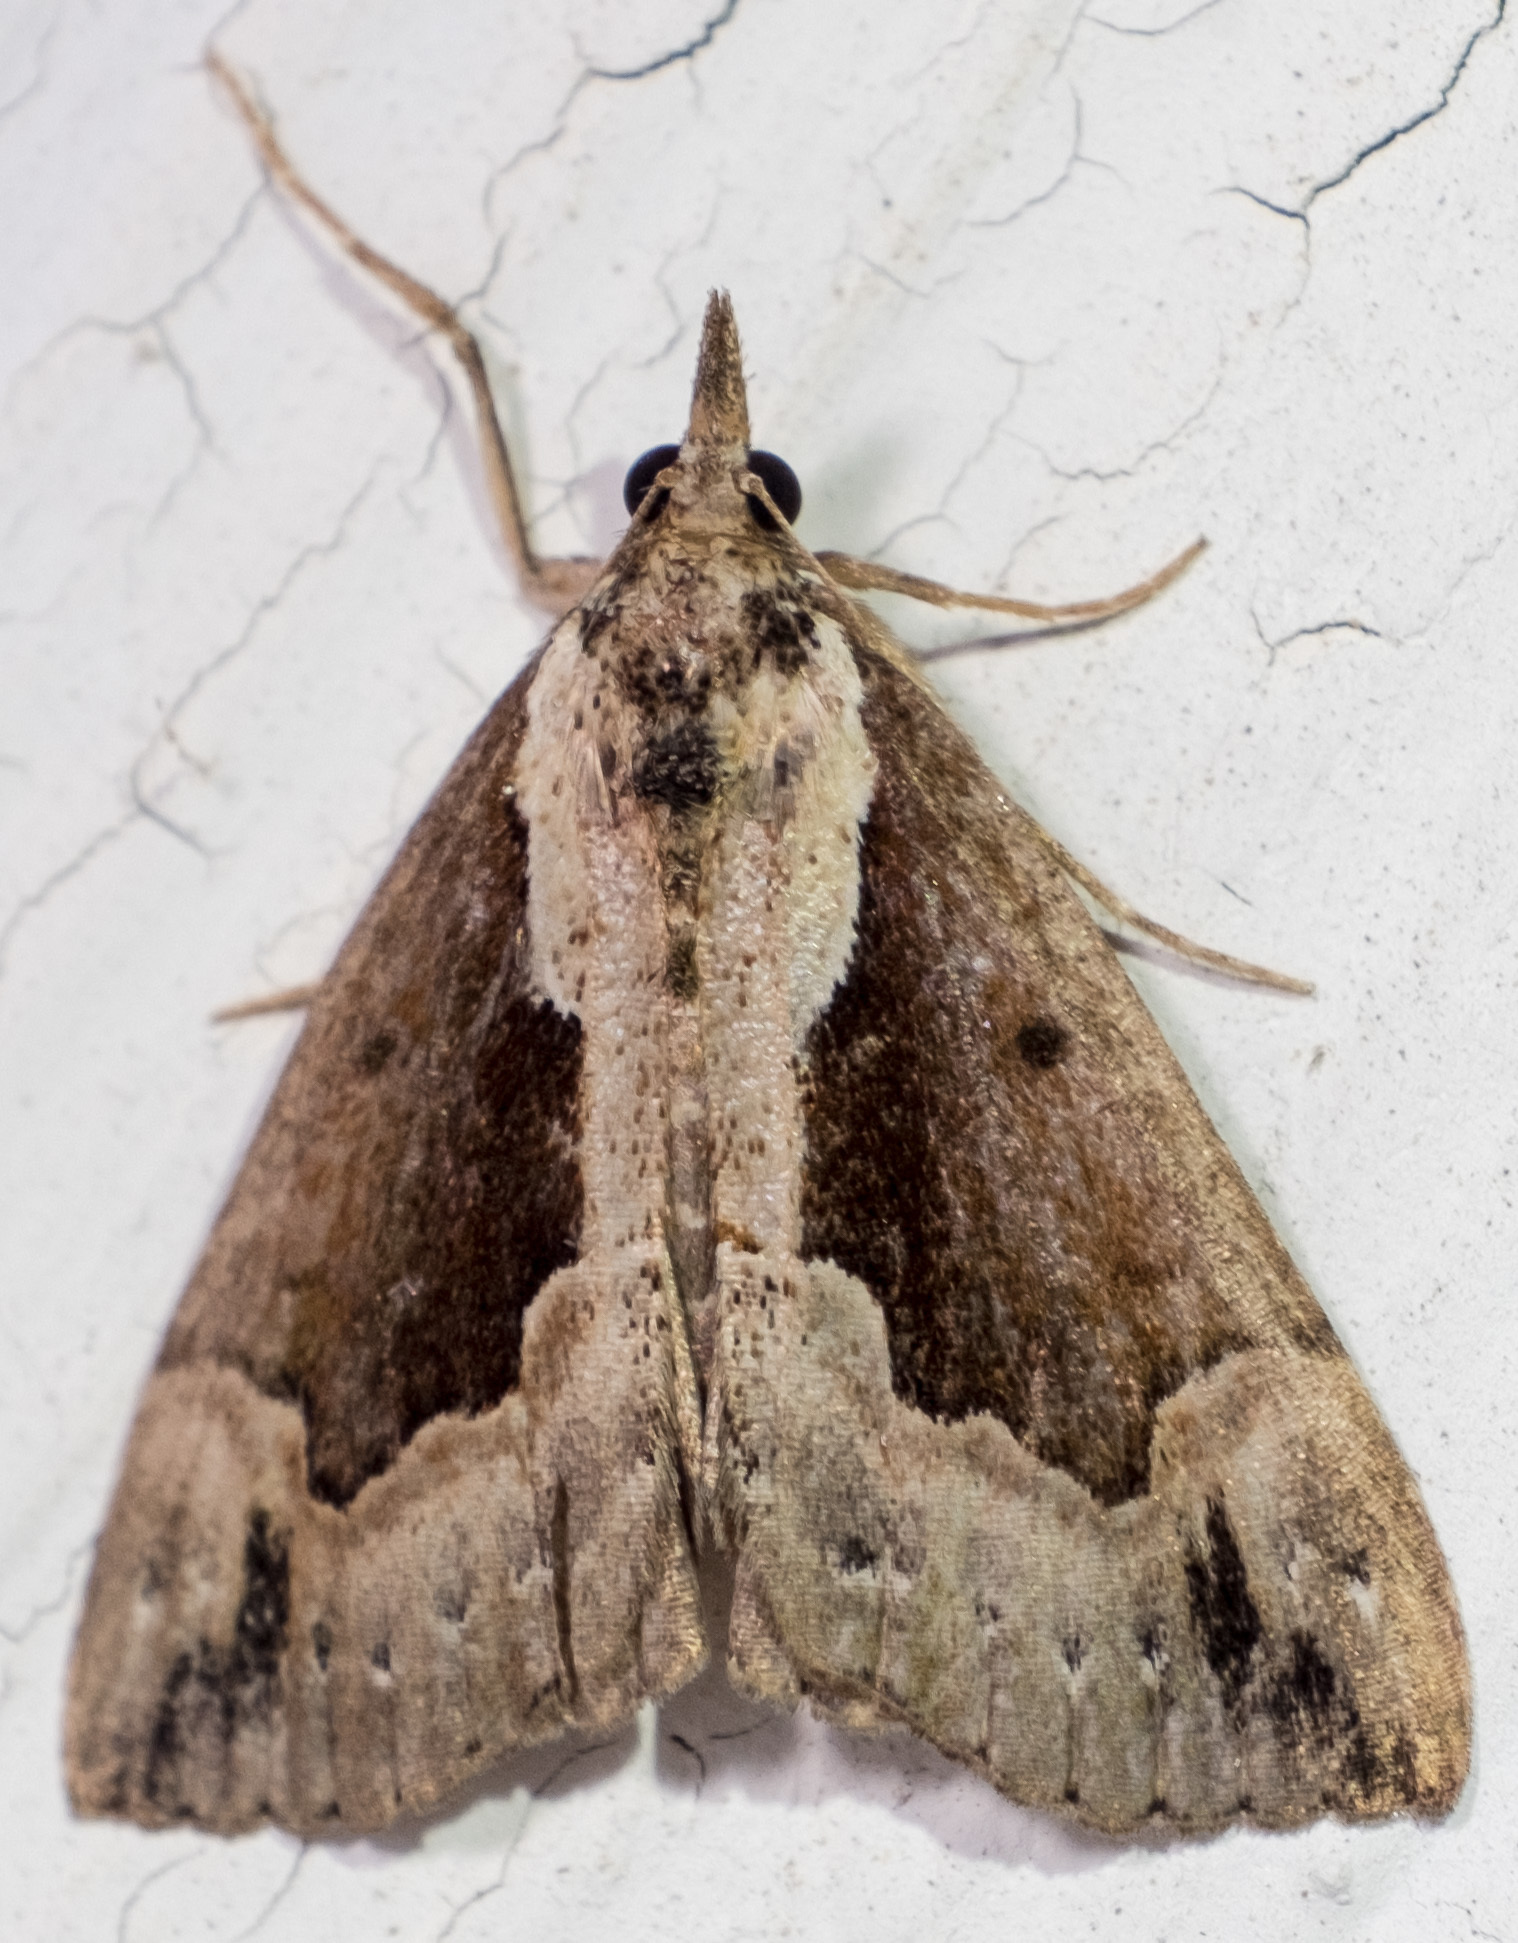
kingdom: Animalia
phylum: Arthropoda
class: Insecta
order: Lepidoptera
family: Erebidae
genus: Hypena
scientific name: Hypena baltimoralis
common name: Baltimore snout
